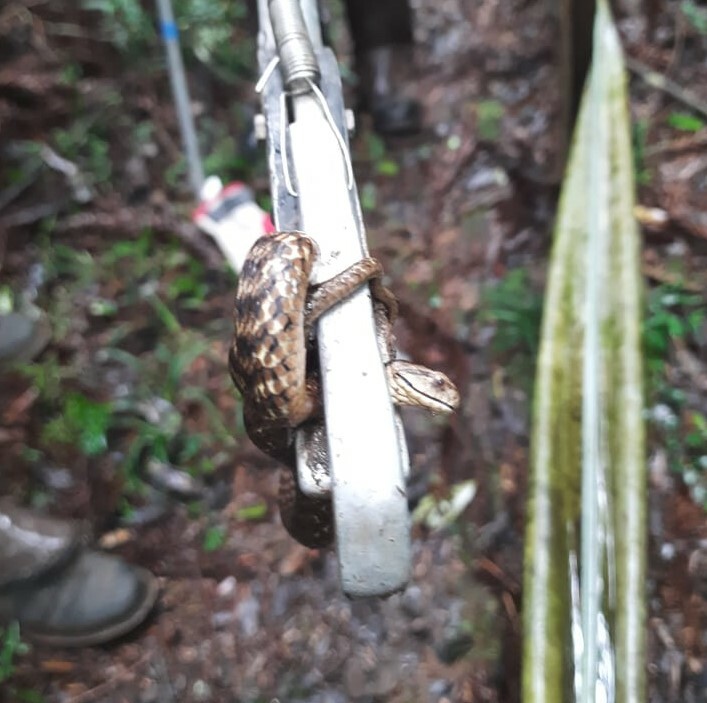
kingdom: Animalia
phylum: Chordata
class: Squamata
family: Colubridae
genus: Tomodon
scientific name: Tomodon dorsatus
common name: Pampas snake
